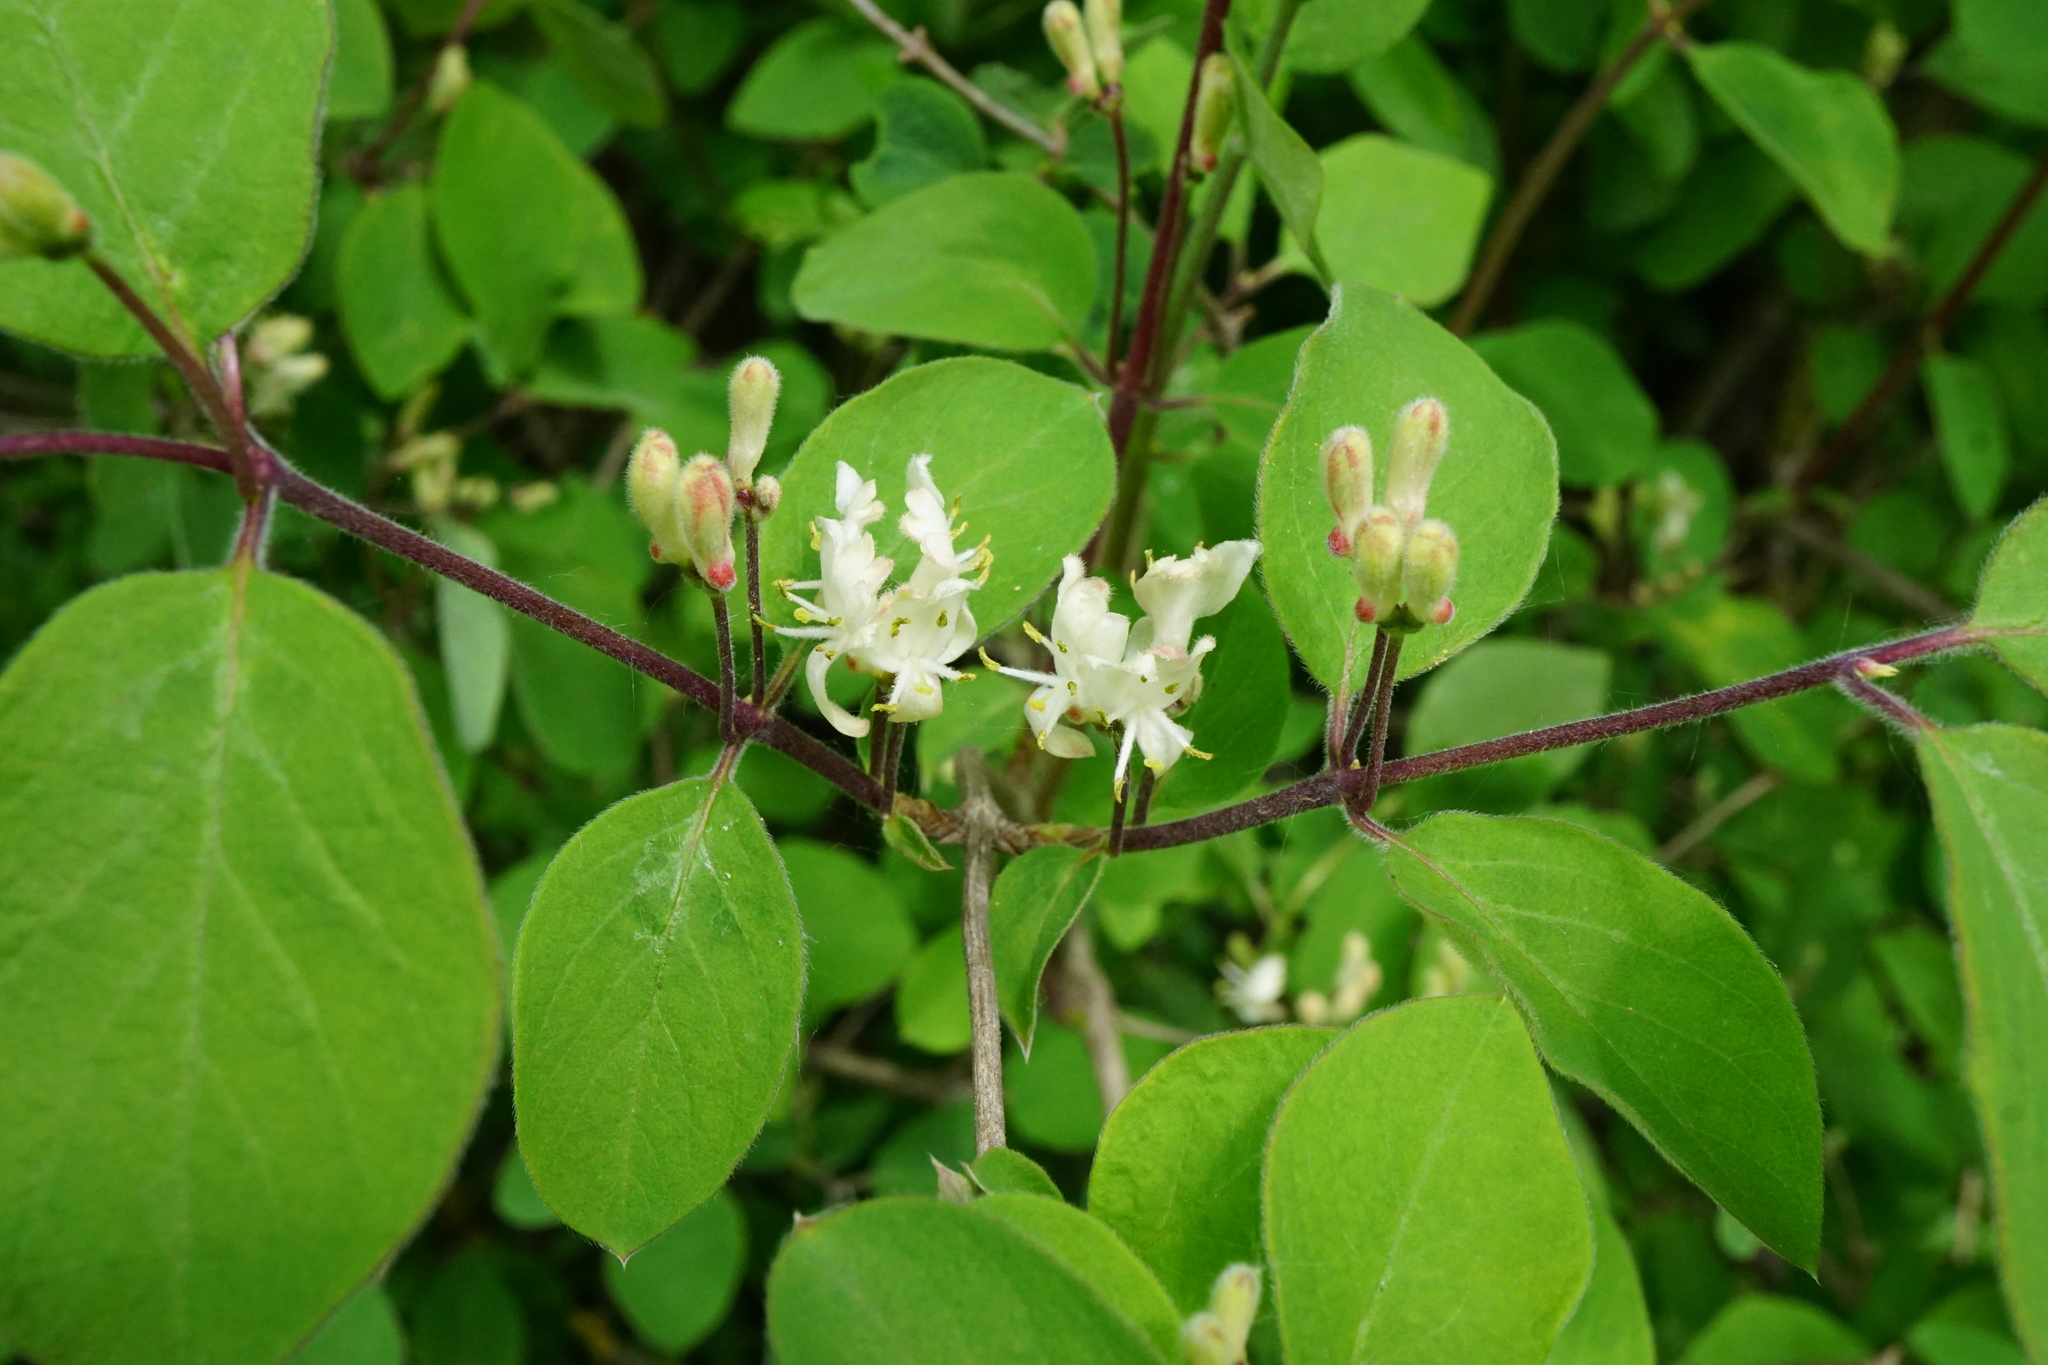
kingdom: Plantae
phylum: Tracheophyta
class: Magnoliopsida
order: Dipsacales
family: Caprifoliaceae
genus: Lonicera
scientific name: Lonicera xylosteum
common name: Fly honeysuckle
